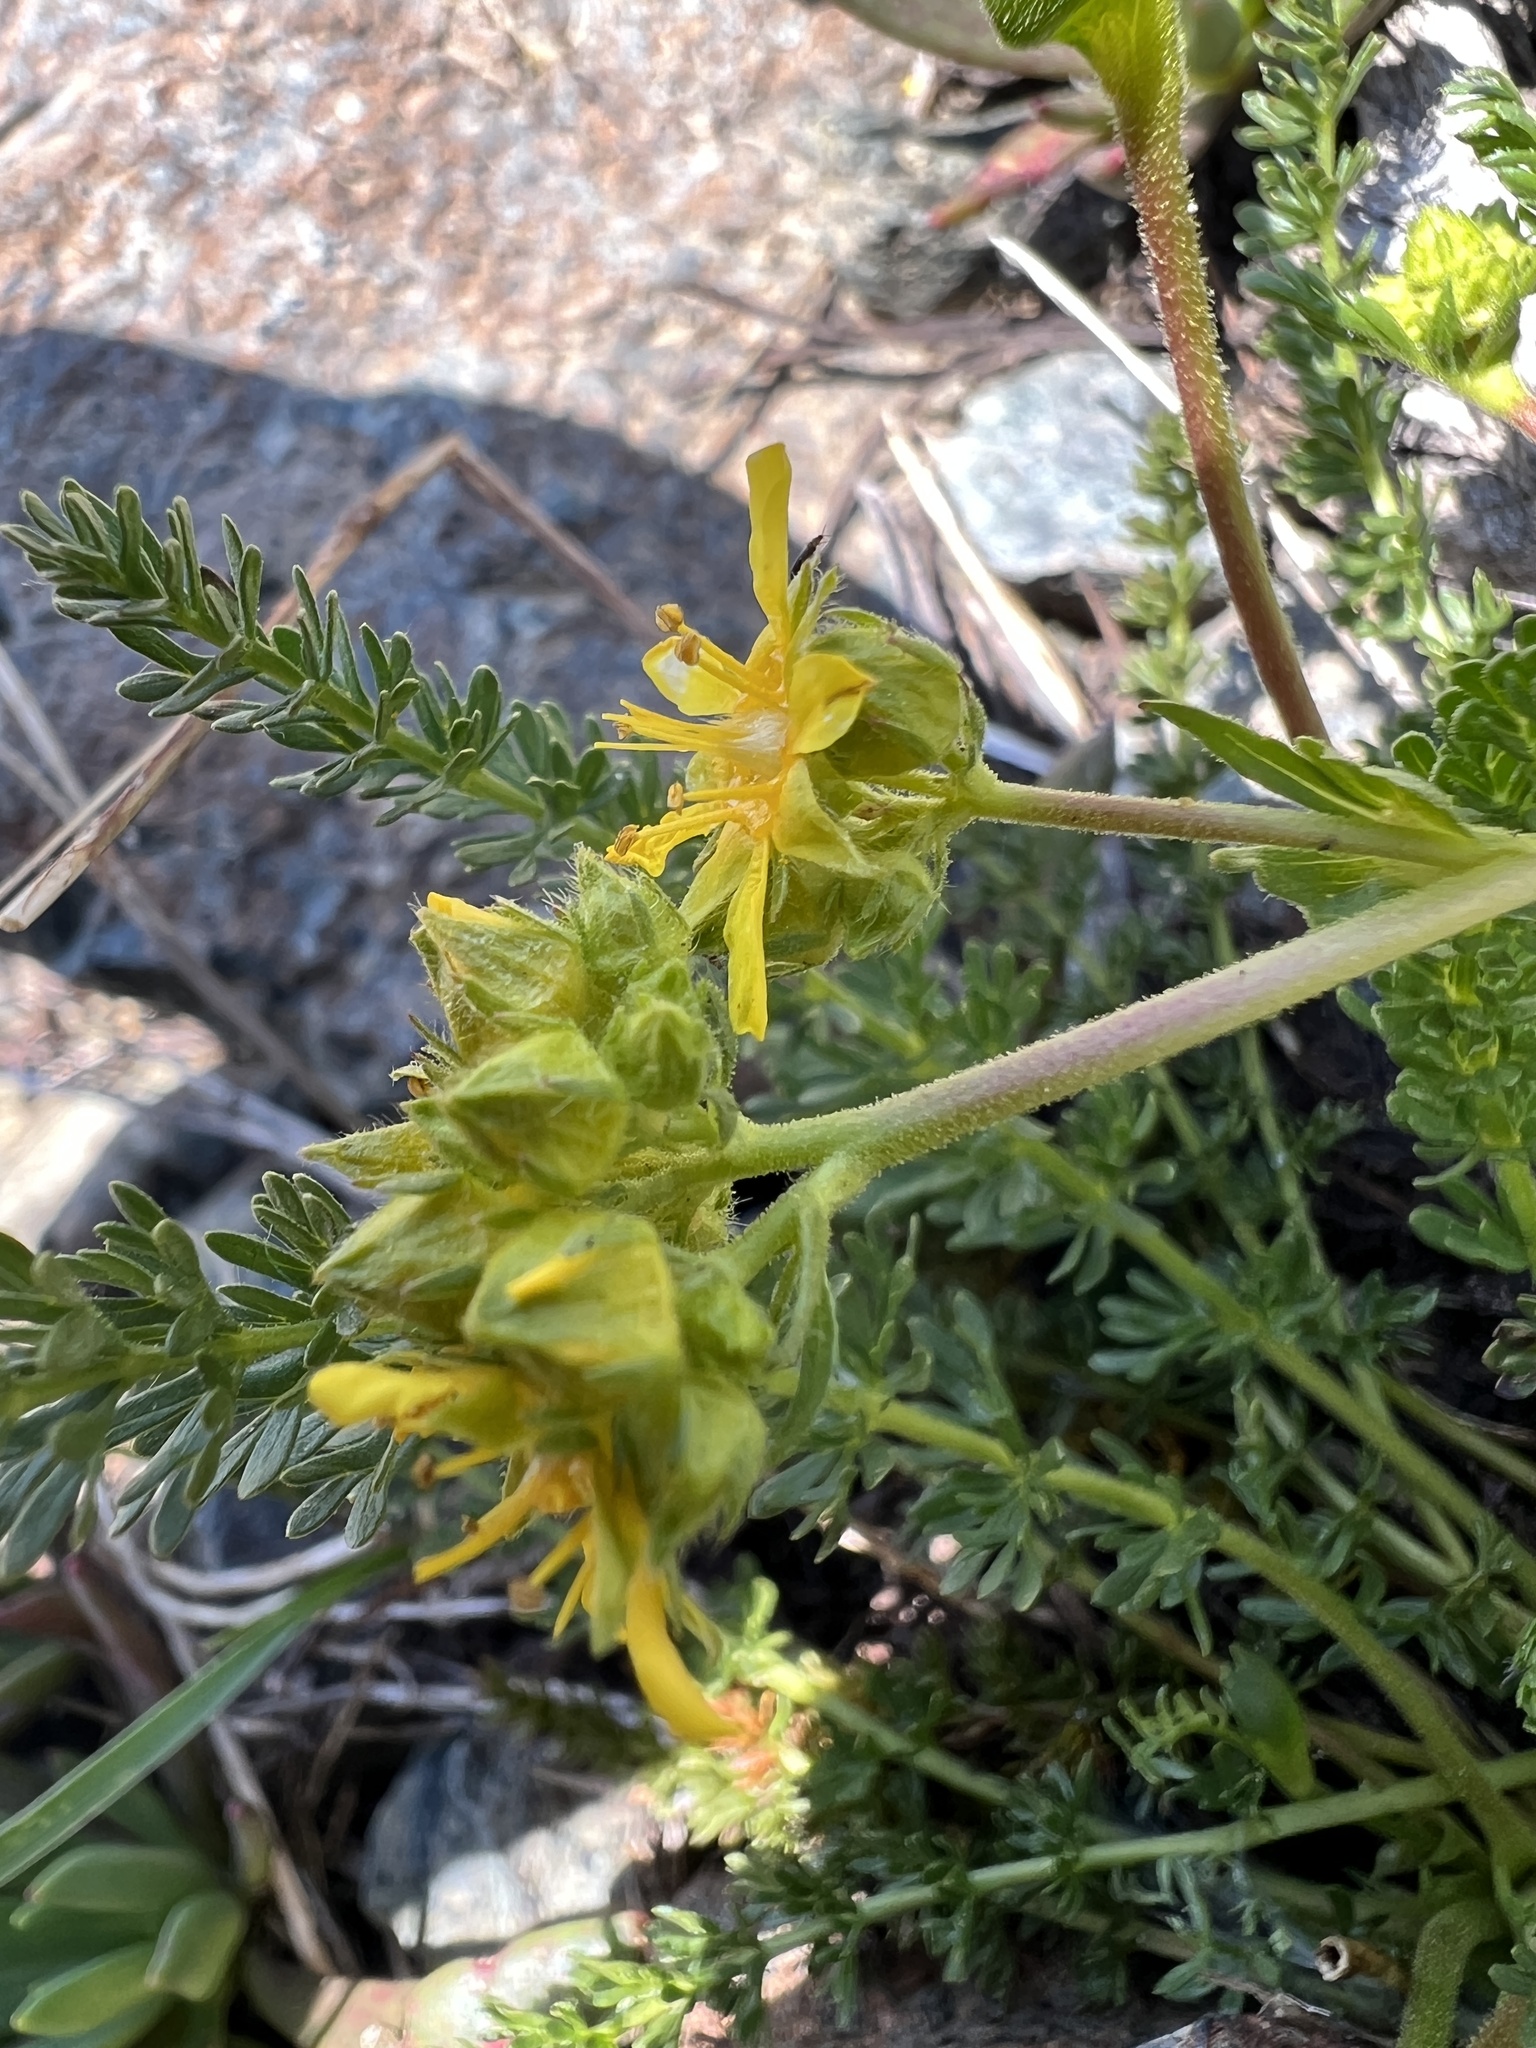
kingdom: Plantae
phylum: Tracheophyta
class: Magnoliopsida
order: Rosales
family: Rosaceae
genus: Potentilla
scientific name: Potentilla tweedyi
